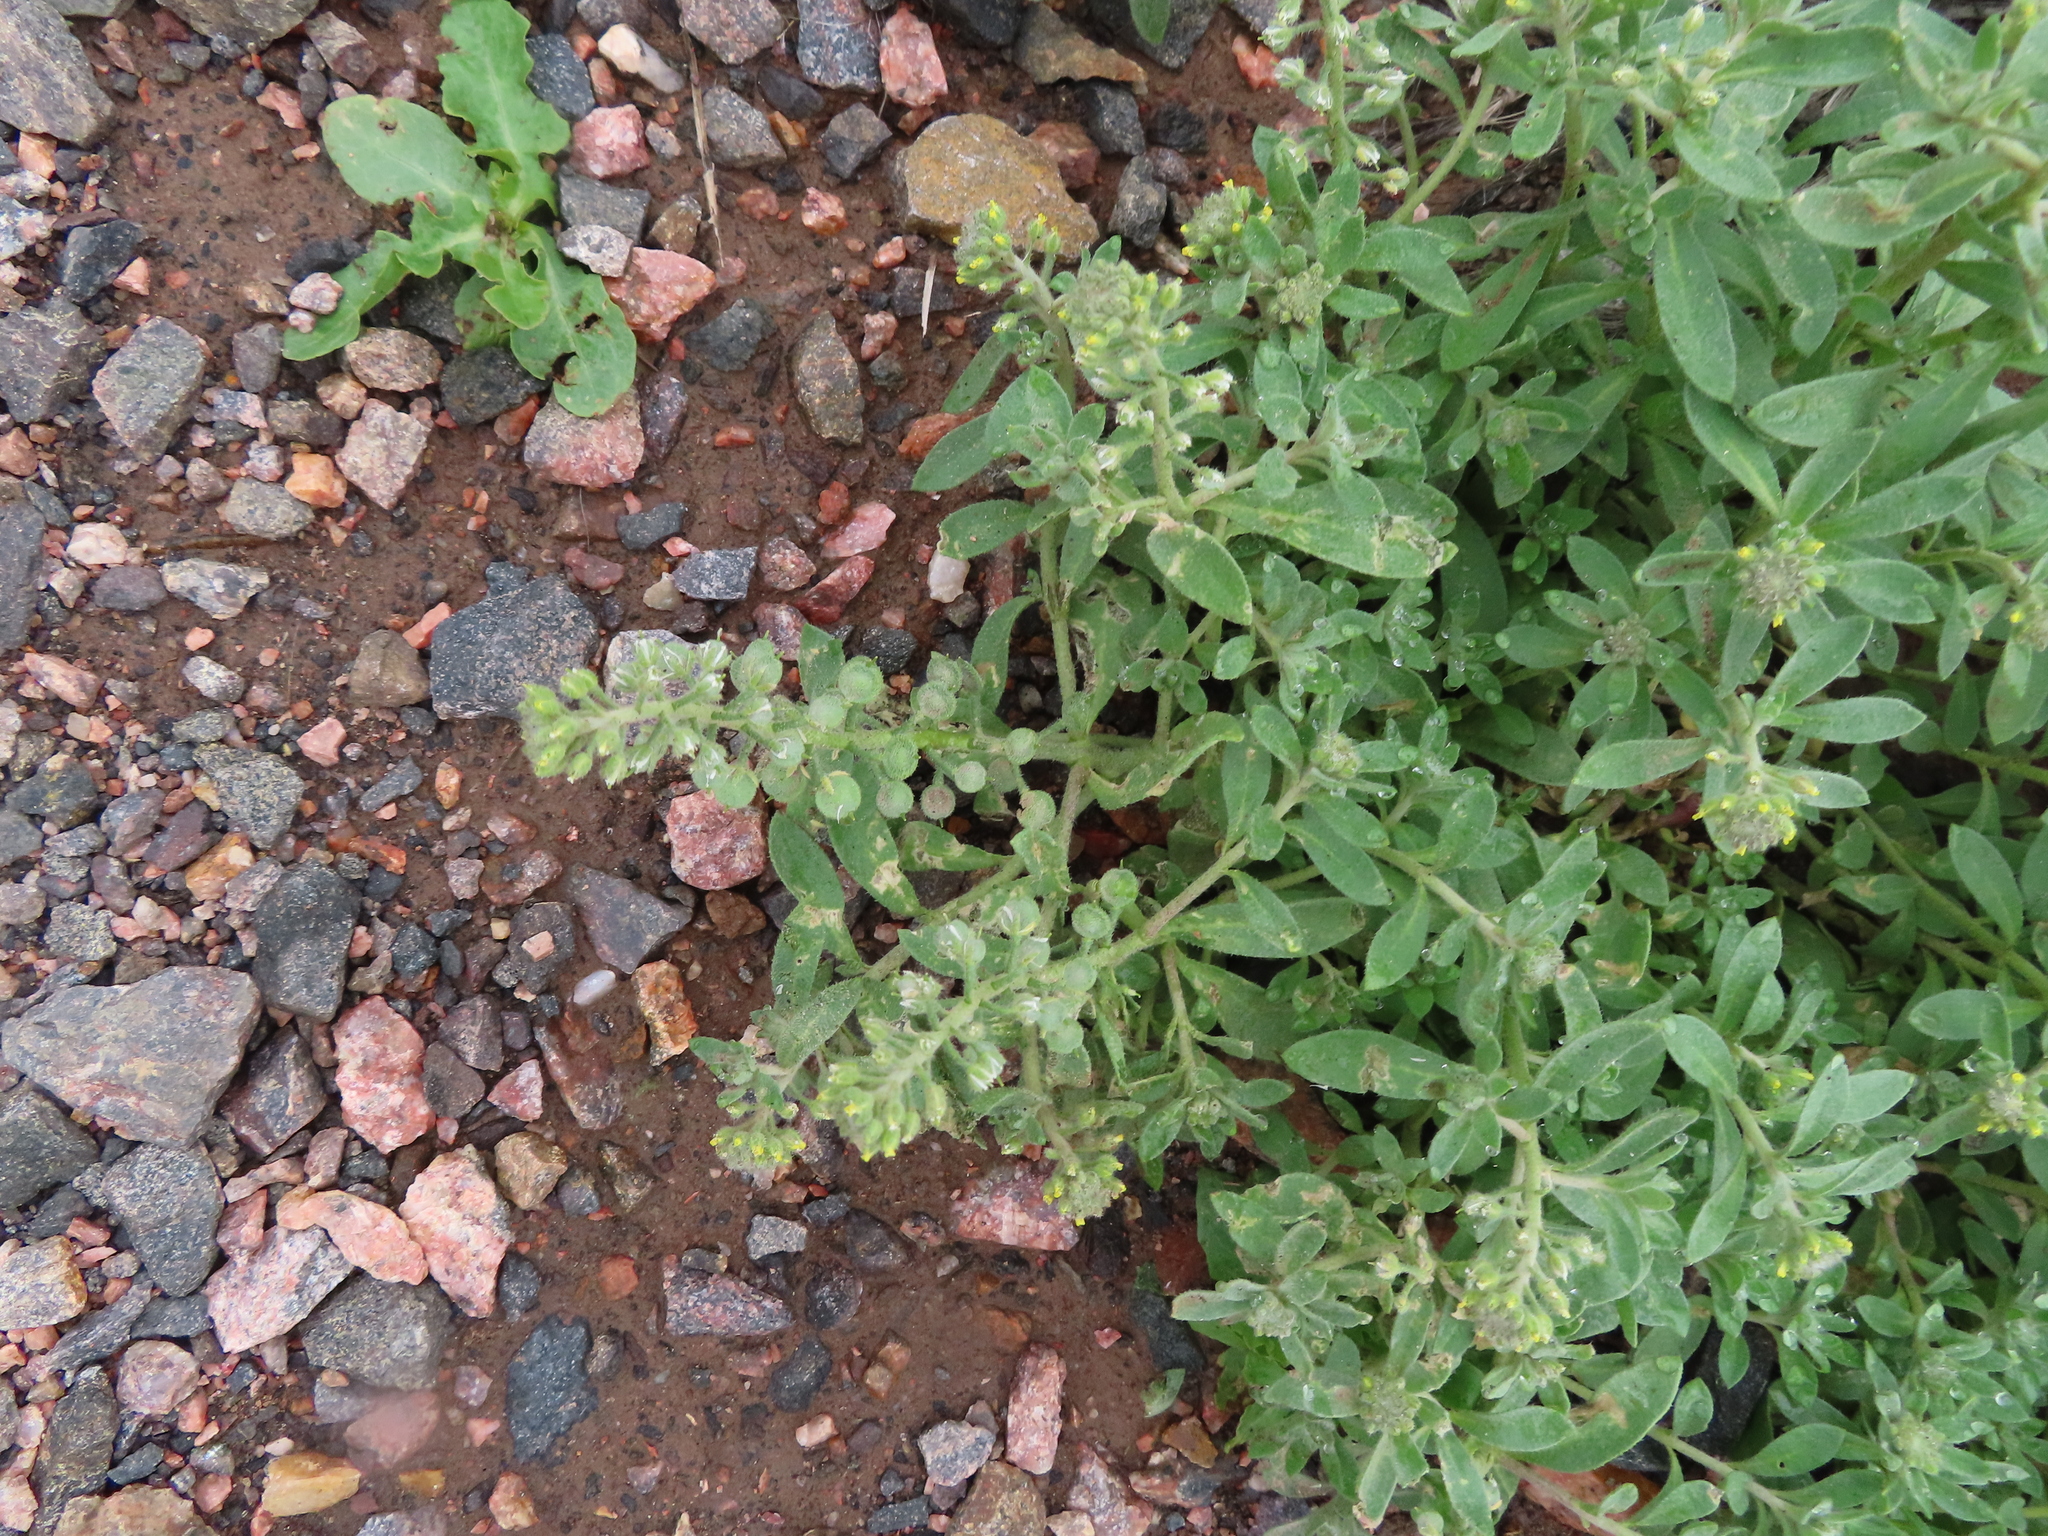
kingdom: Plantae
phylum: Tracheophyta
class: Magnoliopsida
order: Brassicales
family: Brassicaceae
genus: Alyssum
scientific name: Alyssum simplex
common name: Alyssum
